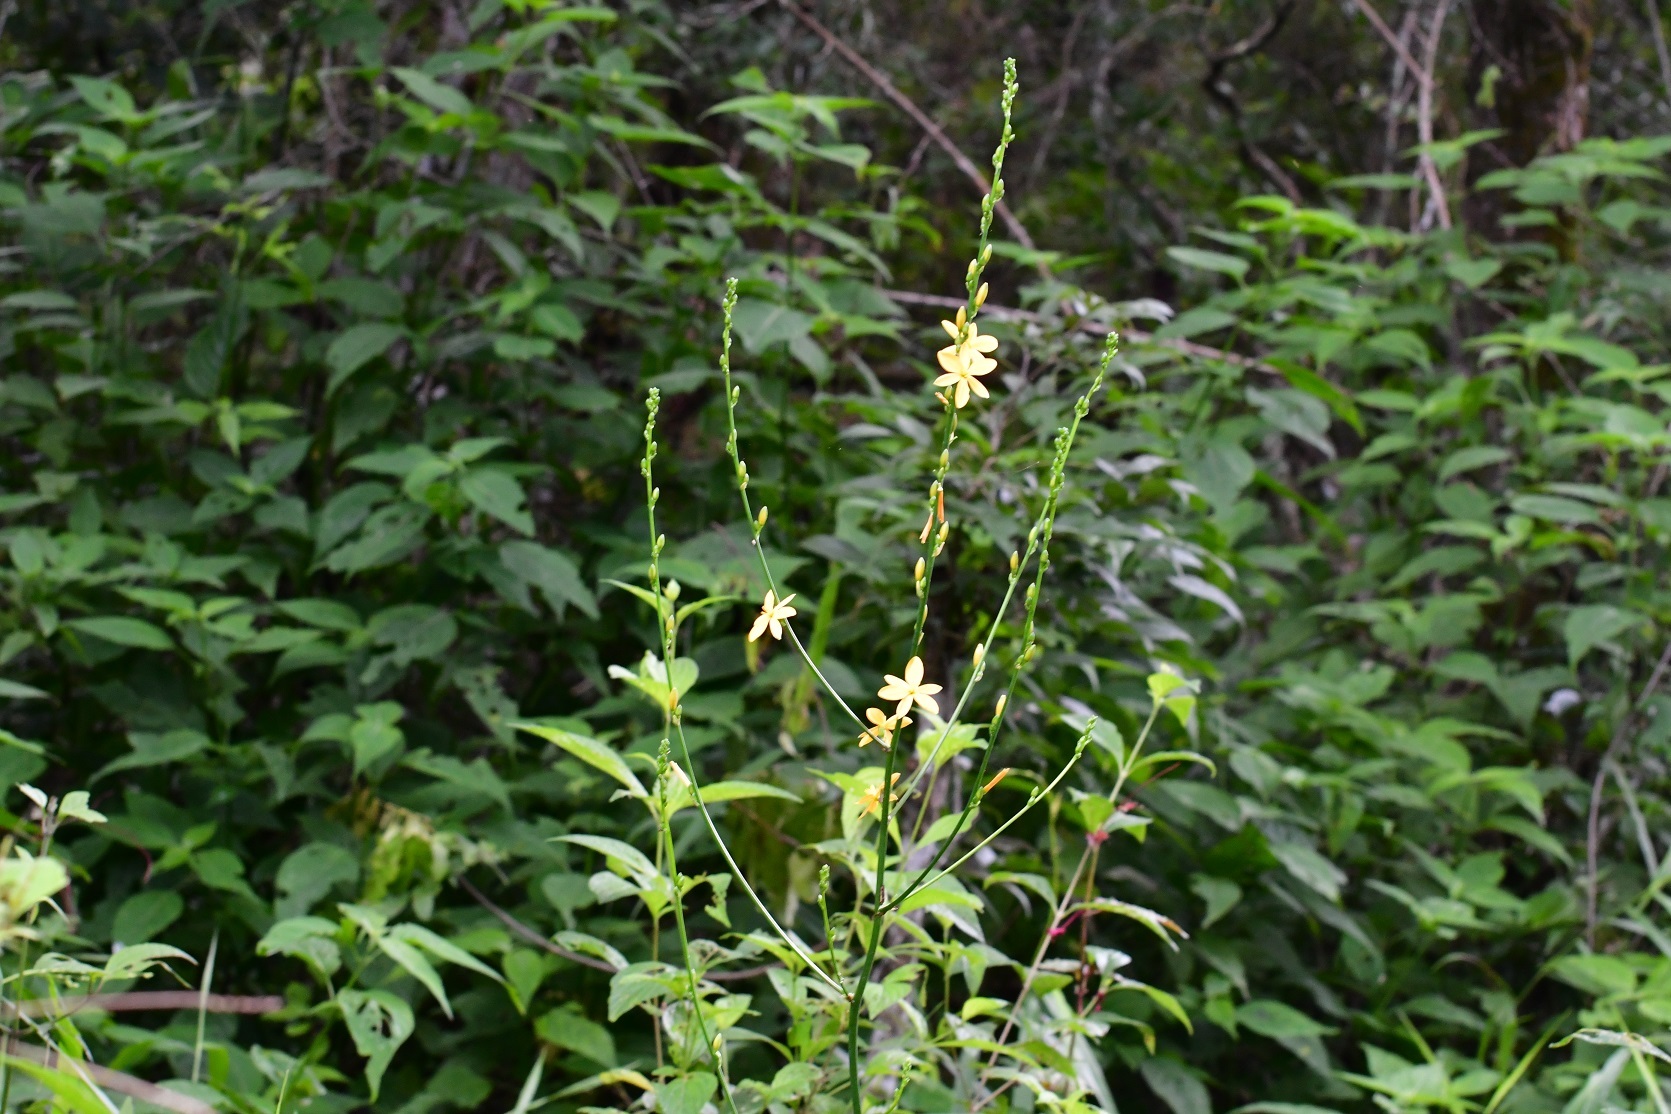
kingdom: Plantae
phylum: Tracheophyta
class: Liliopsida
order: Asparagales
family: Asparagaceae
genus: Echeandia
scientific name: Echeandia breedlovei
